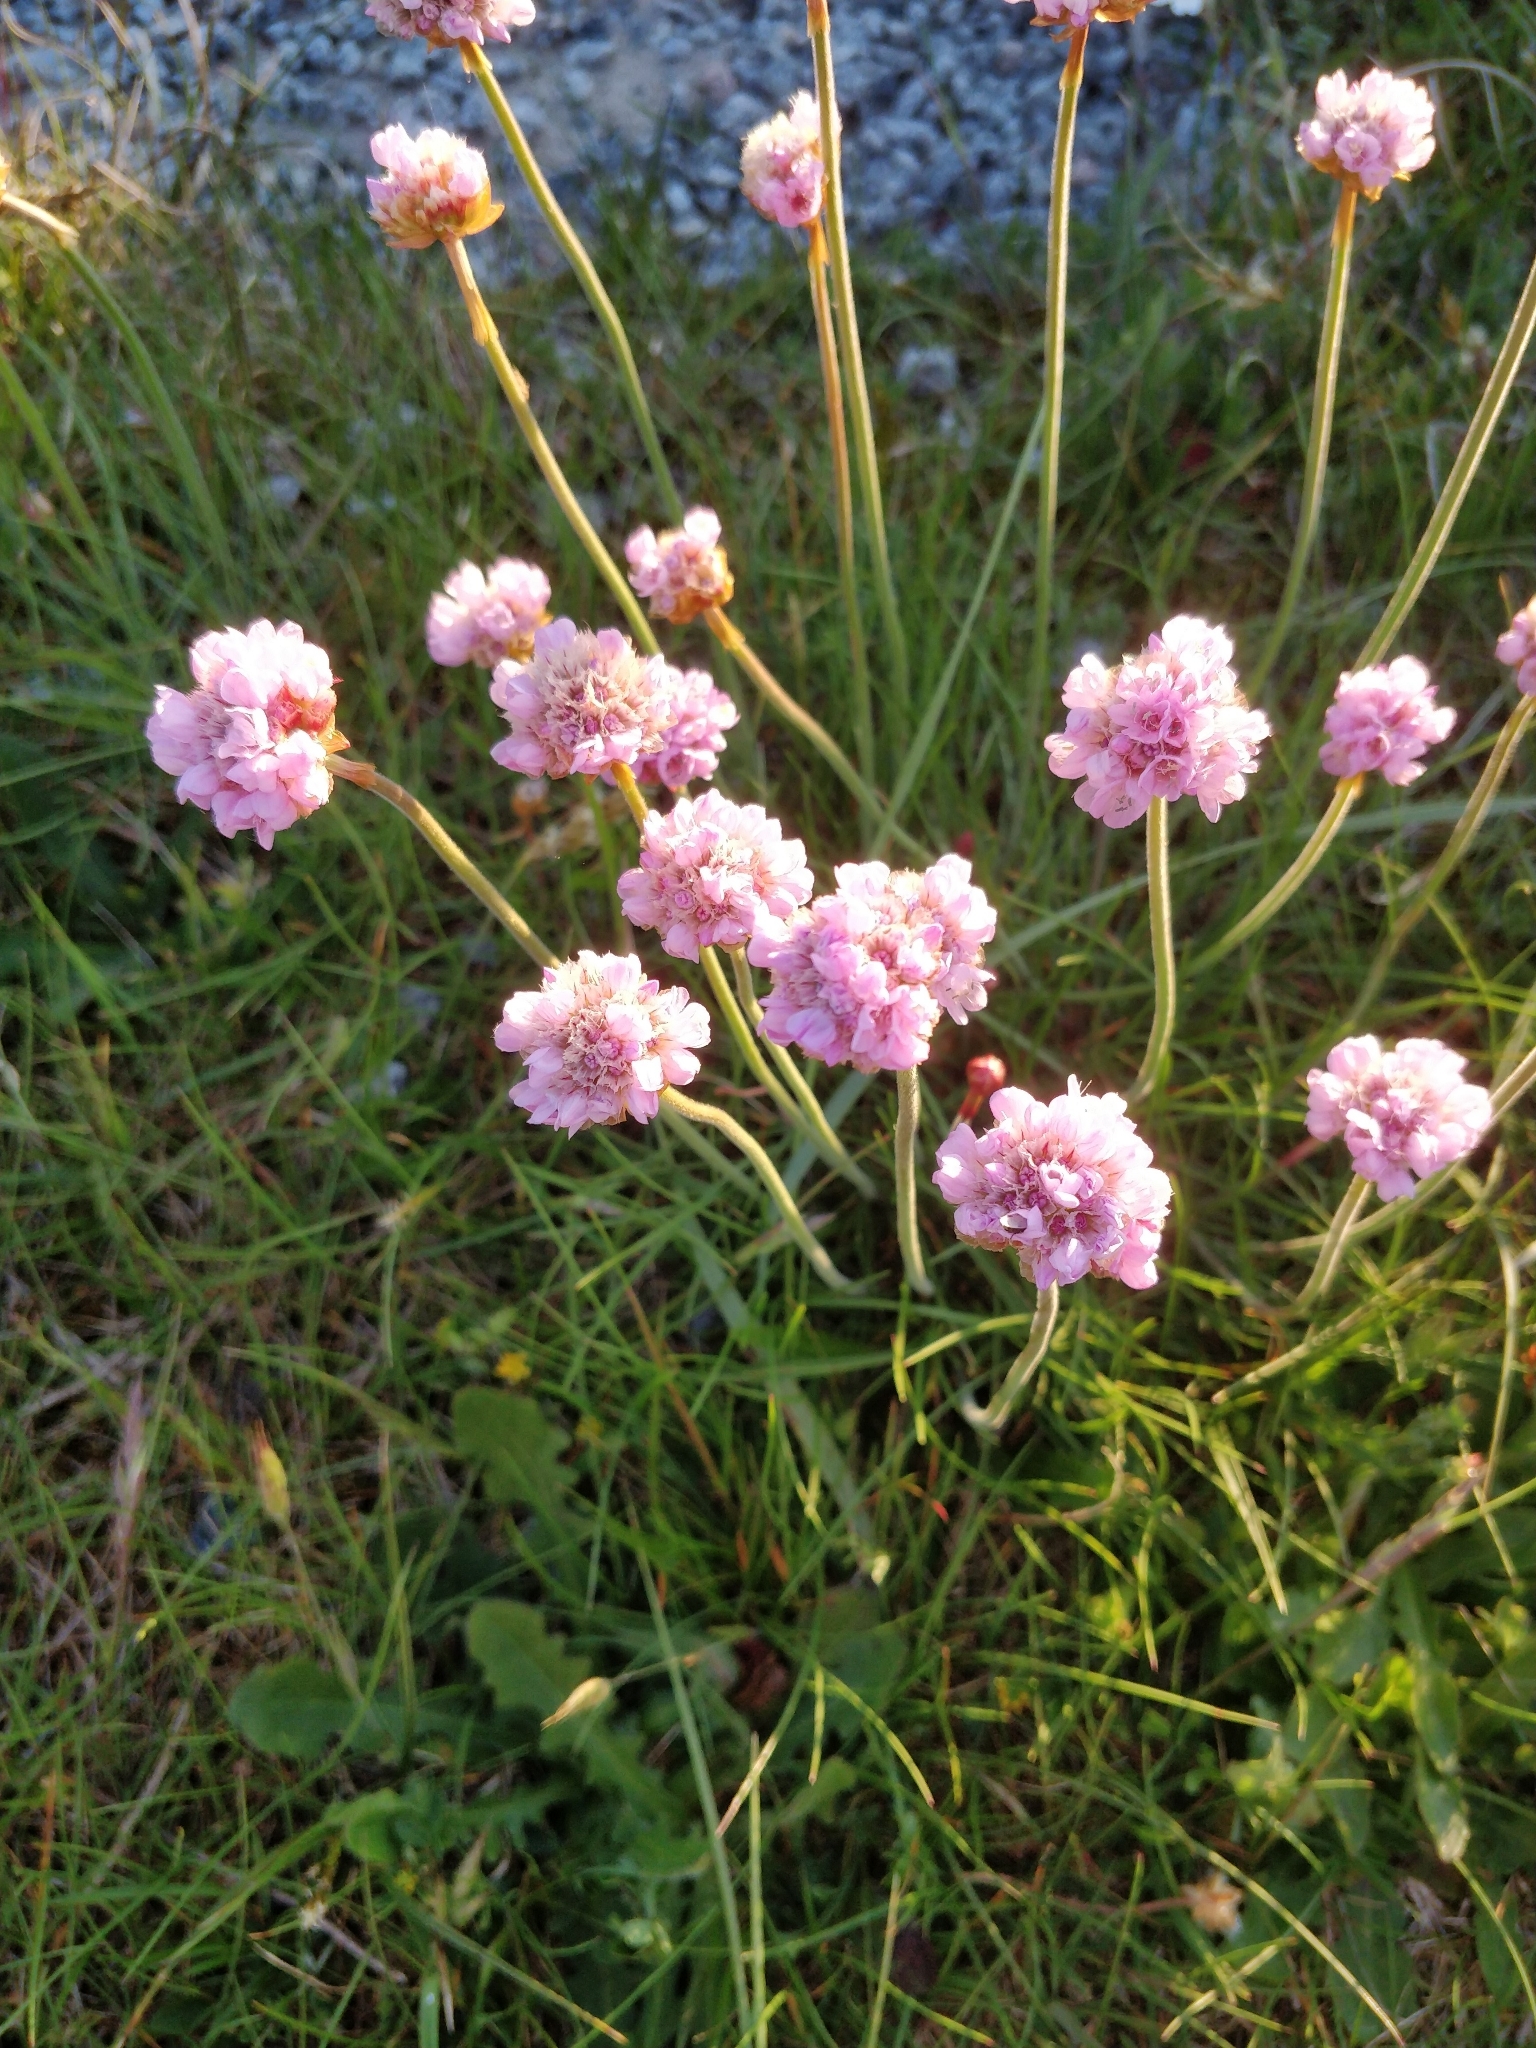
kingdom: Plantae
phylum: Tracheophyta
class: Magnoliopsida
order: Caryophyllales
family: Plumbaginaceae
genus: Armeria
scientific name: Armeria maritima
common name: Thrift
